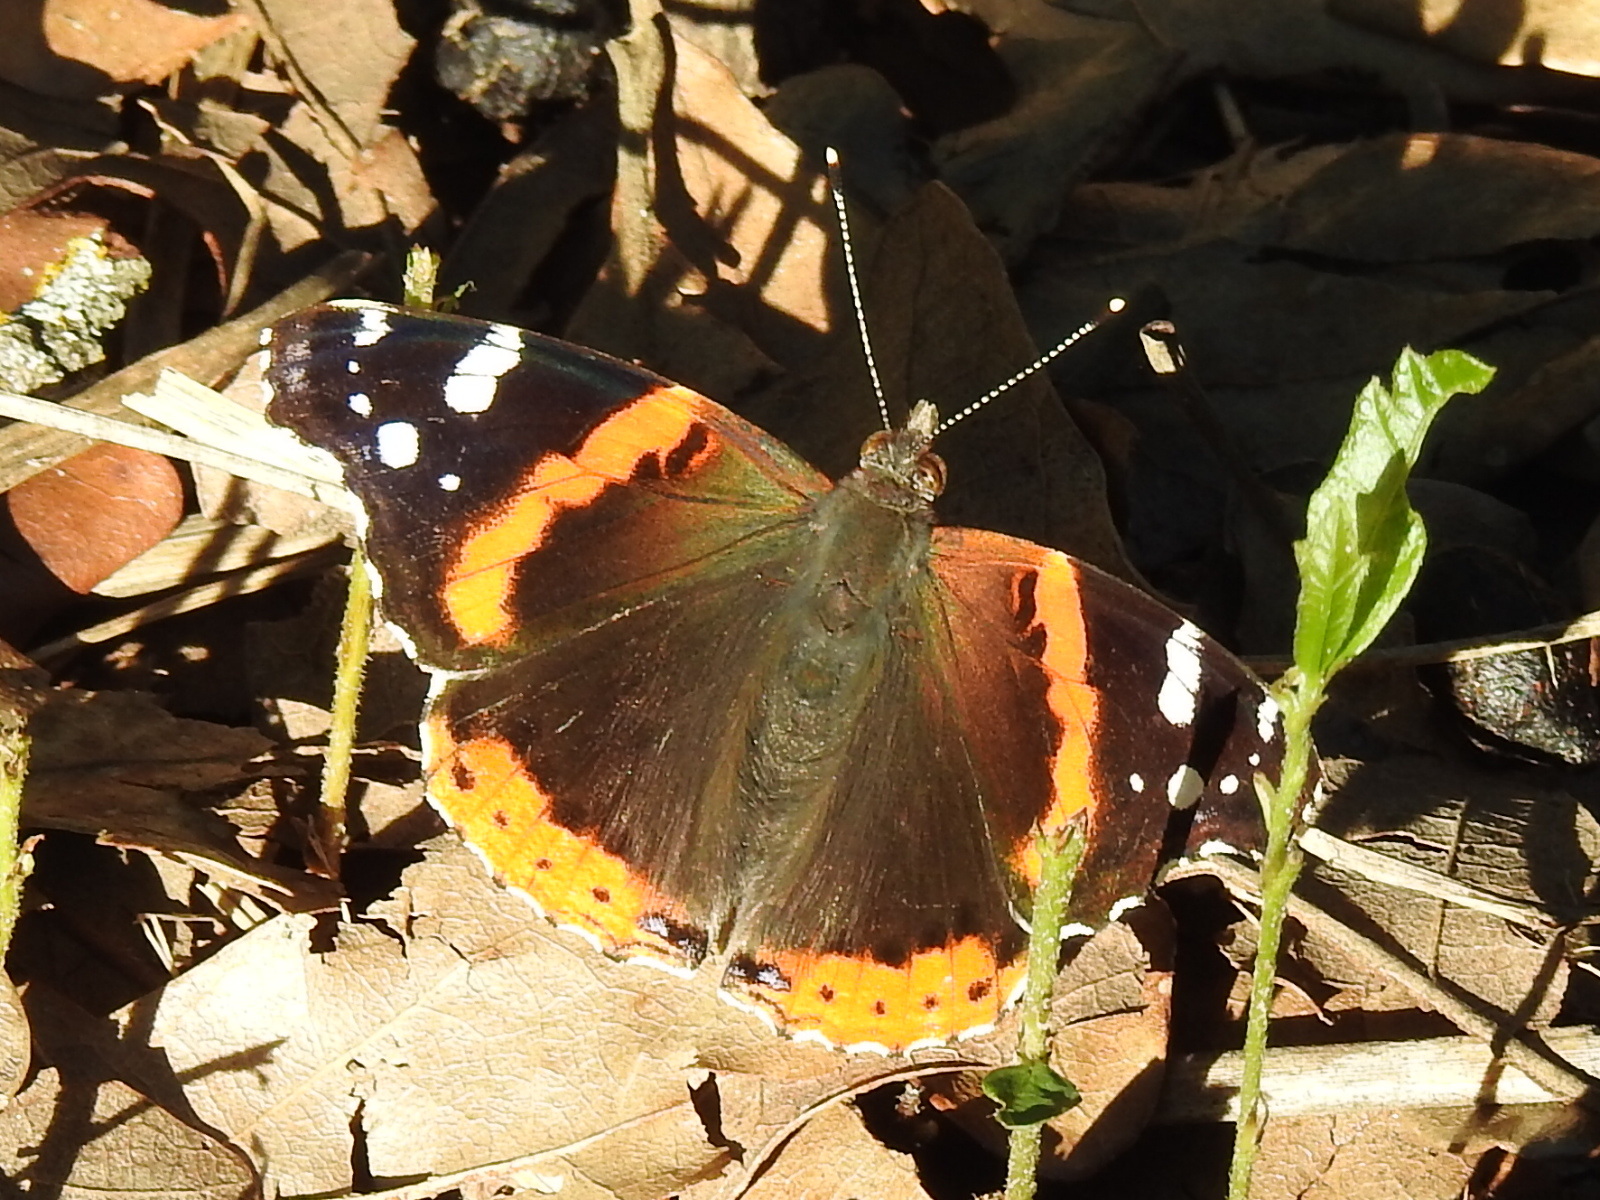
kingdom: Animalia
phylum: Arthropoda
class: Insecta
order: Lepidoptera
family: Nymphalidae
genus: Vanessa
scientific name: Vanessa atalanta
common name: Red admiral
